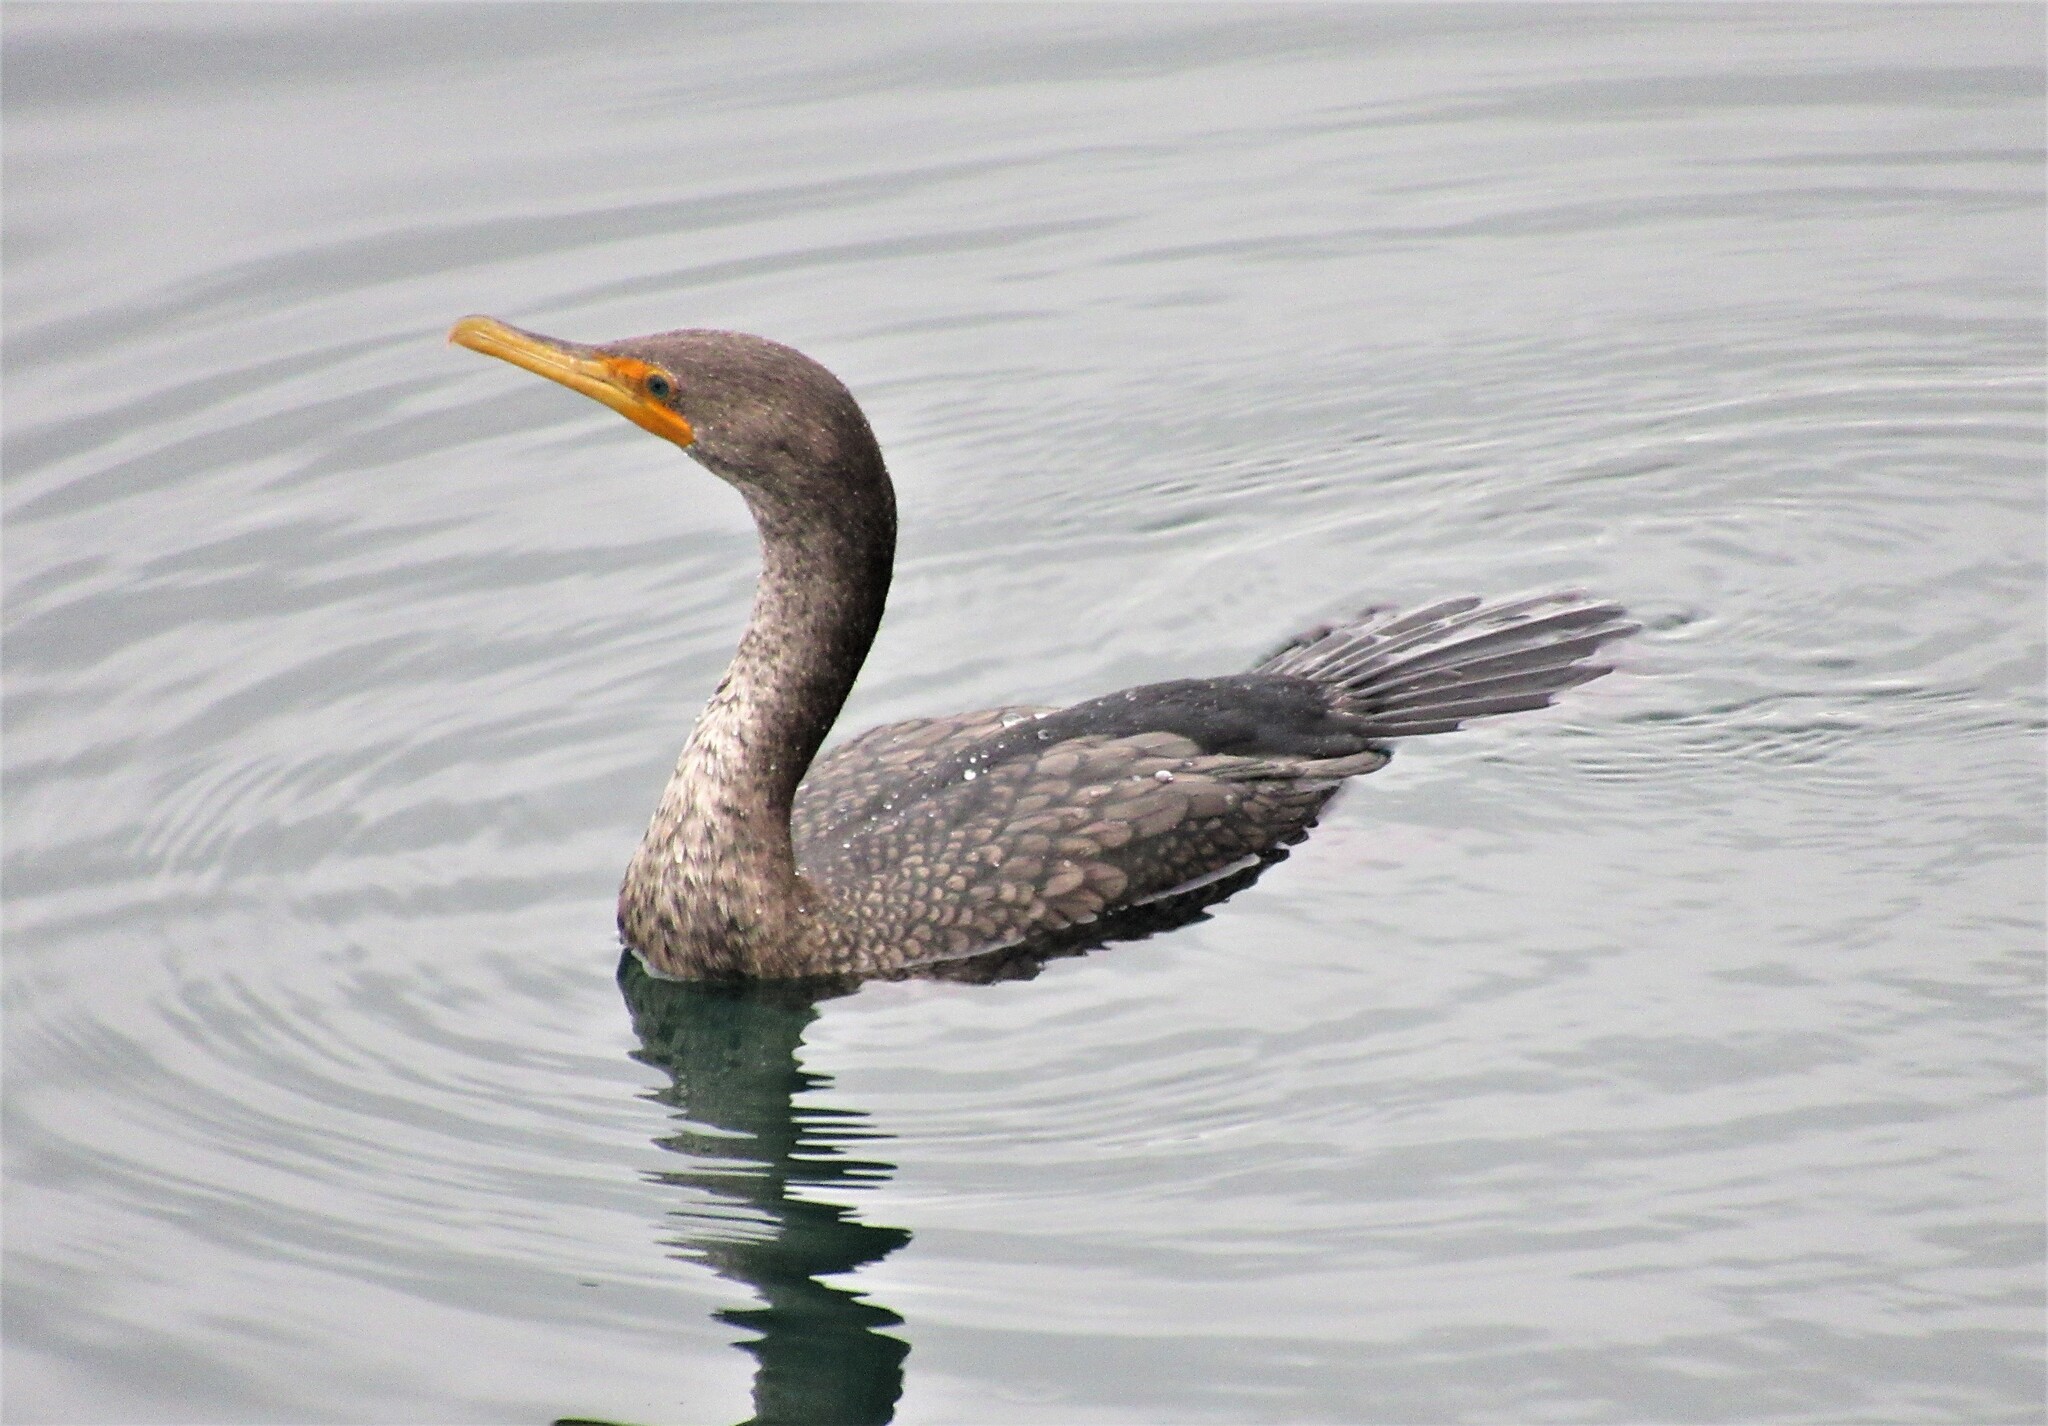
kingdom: Animalia
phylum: Chordata
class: Aves
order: Suliformes
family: Phalacrocoracidae
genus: Phalacrocorax
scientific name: Phalacrocorax auritus
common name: Double-crested cormorant
